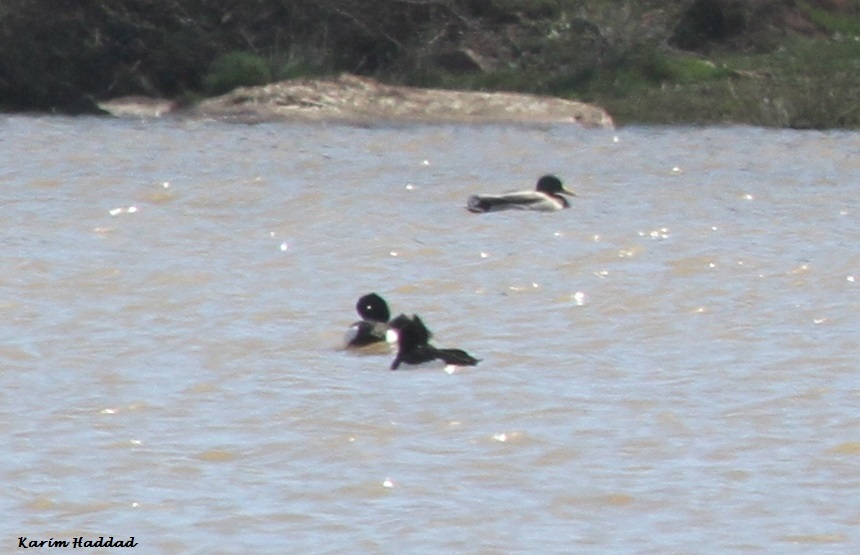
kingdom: Animalia
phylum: Chordata
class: Aves
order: Anseriformes
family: Anatidae
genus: Aythya
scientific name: Aythya fuligula
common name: Tufted duck
